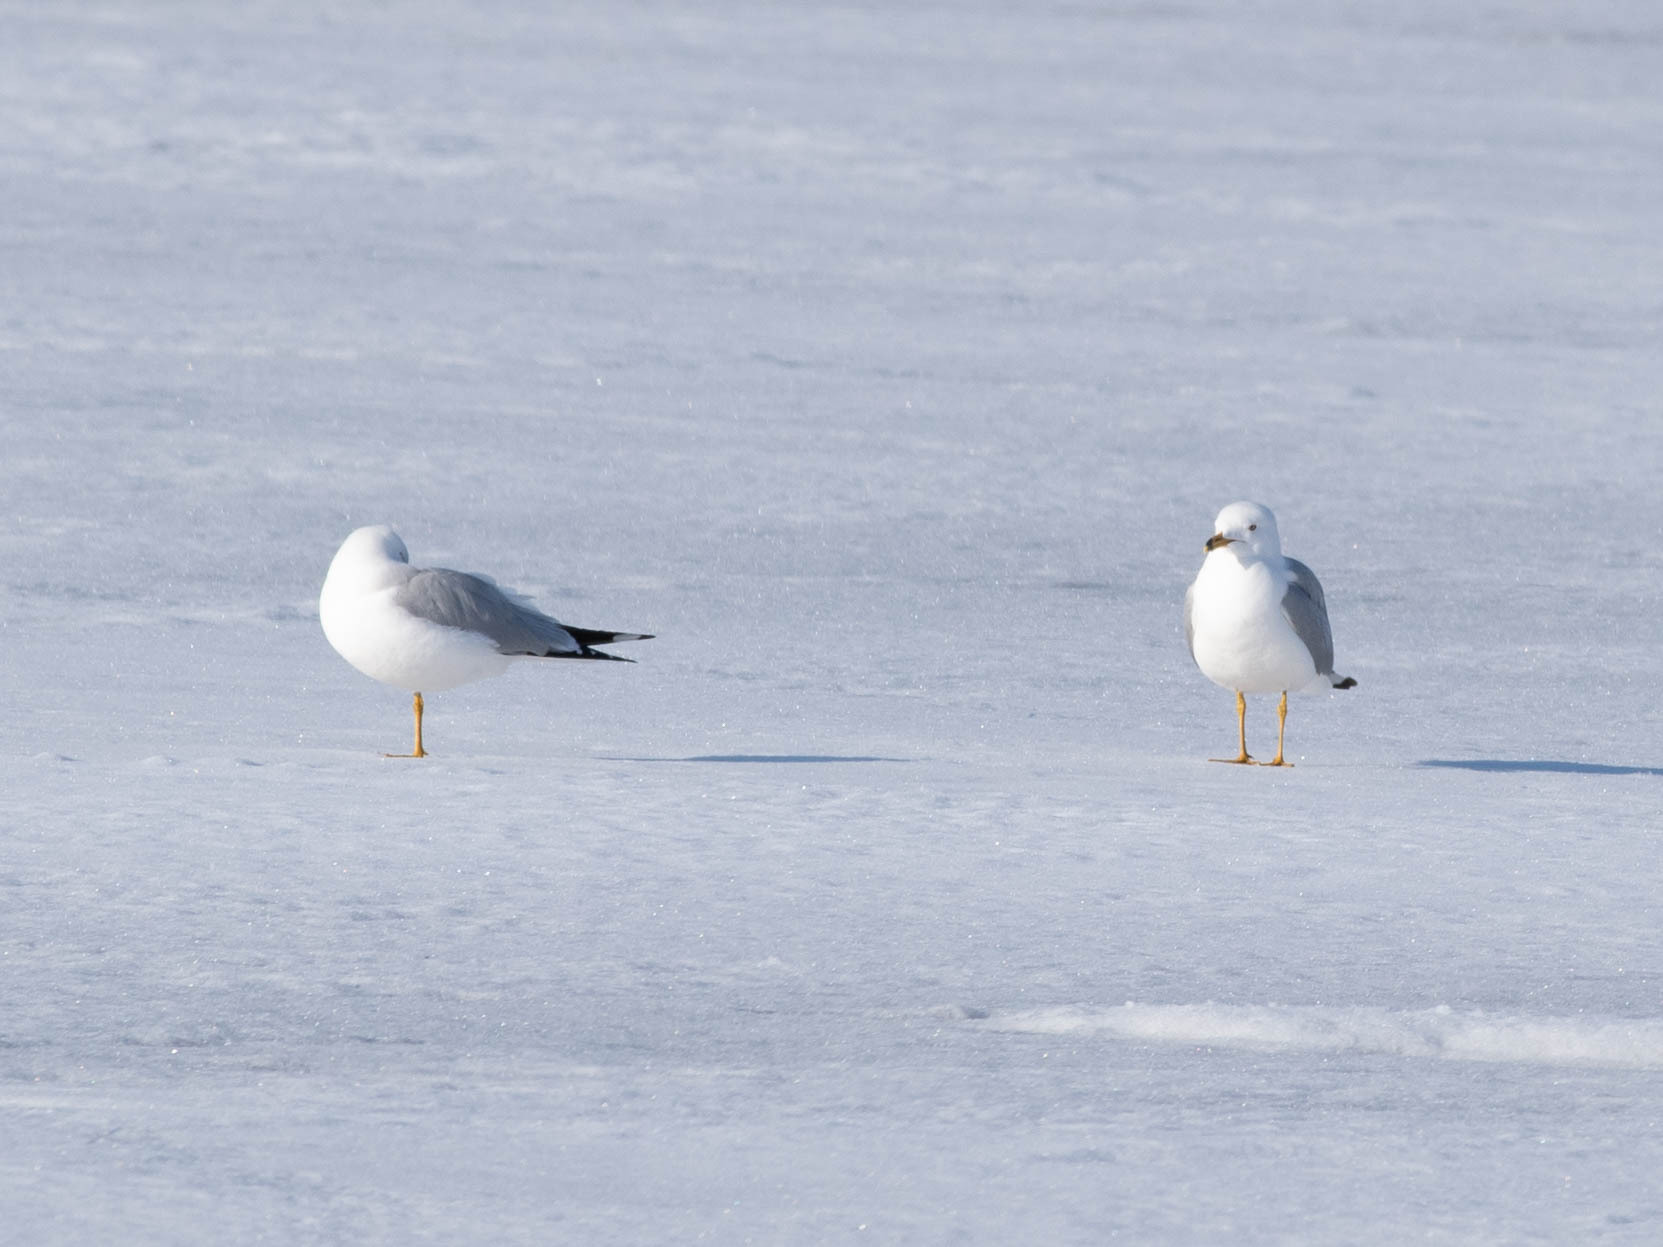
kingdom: Animalia
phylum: Chordata
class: Aves
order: Charadriiformes
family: Laridae
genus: Larus
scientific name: Larus delawarensis
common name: Ring-billed gull
